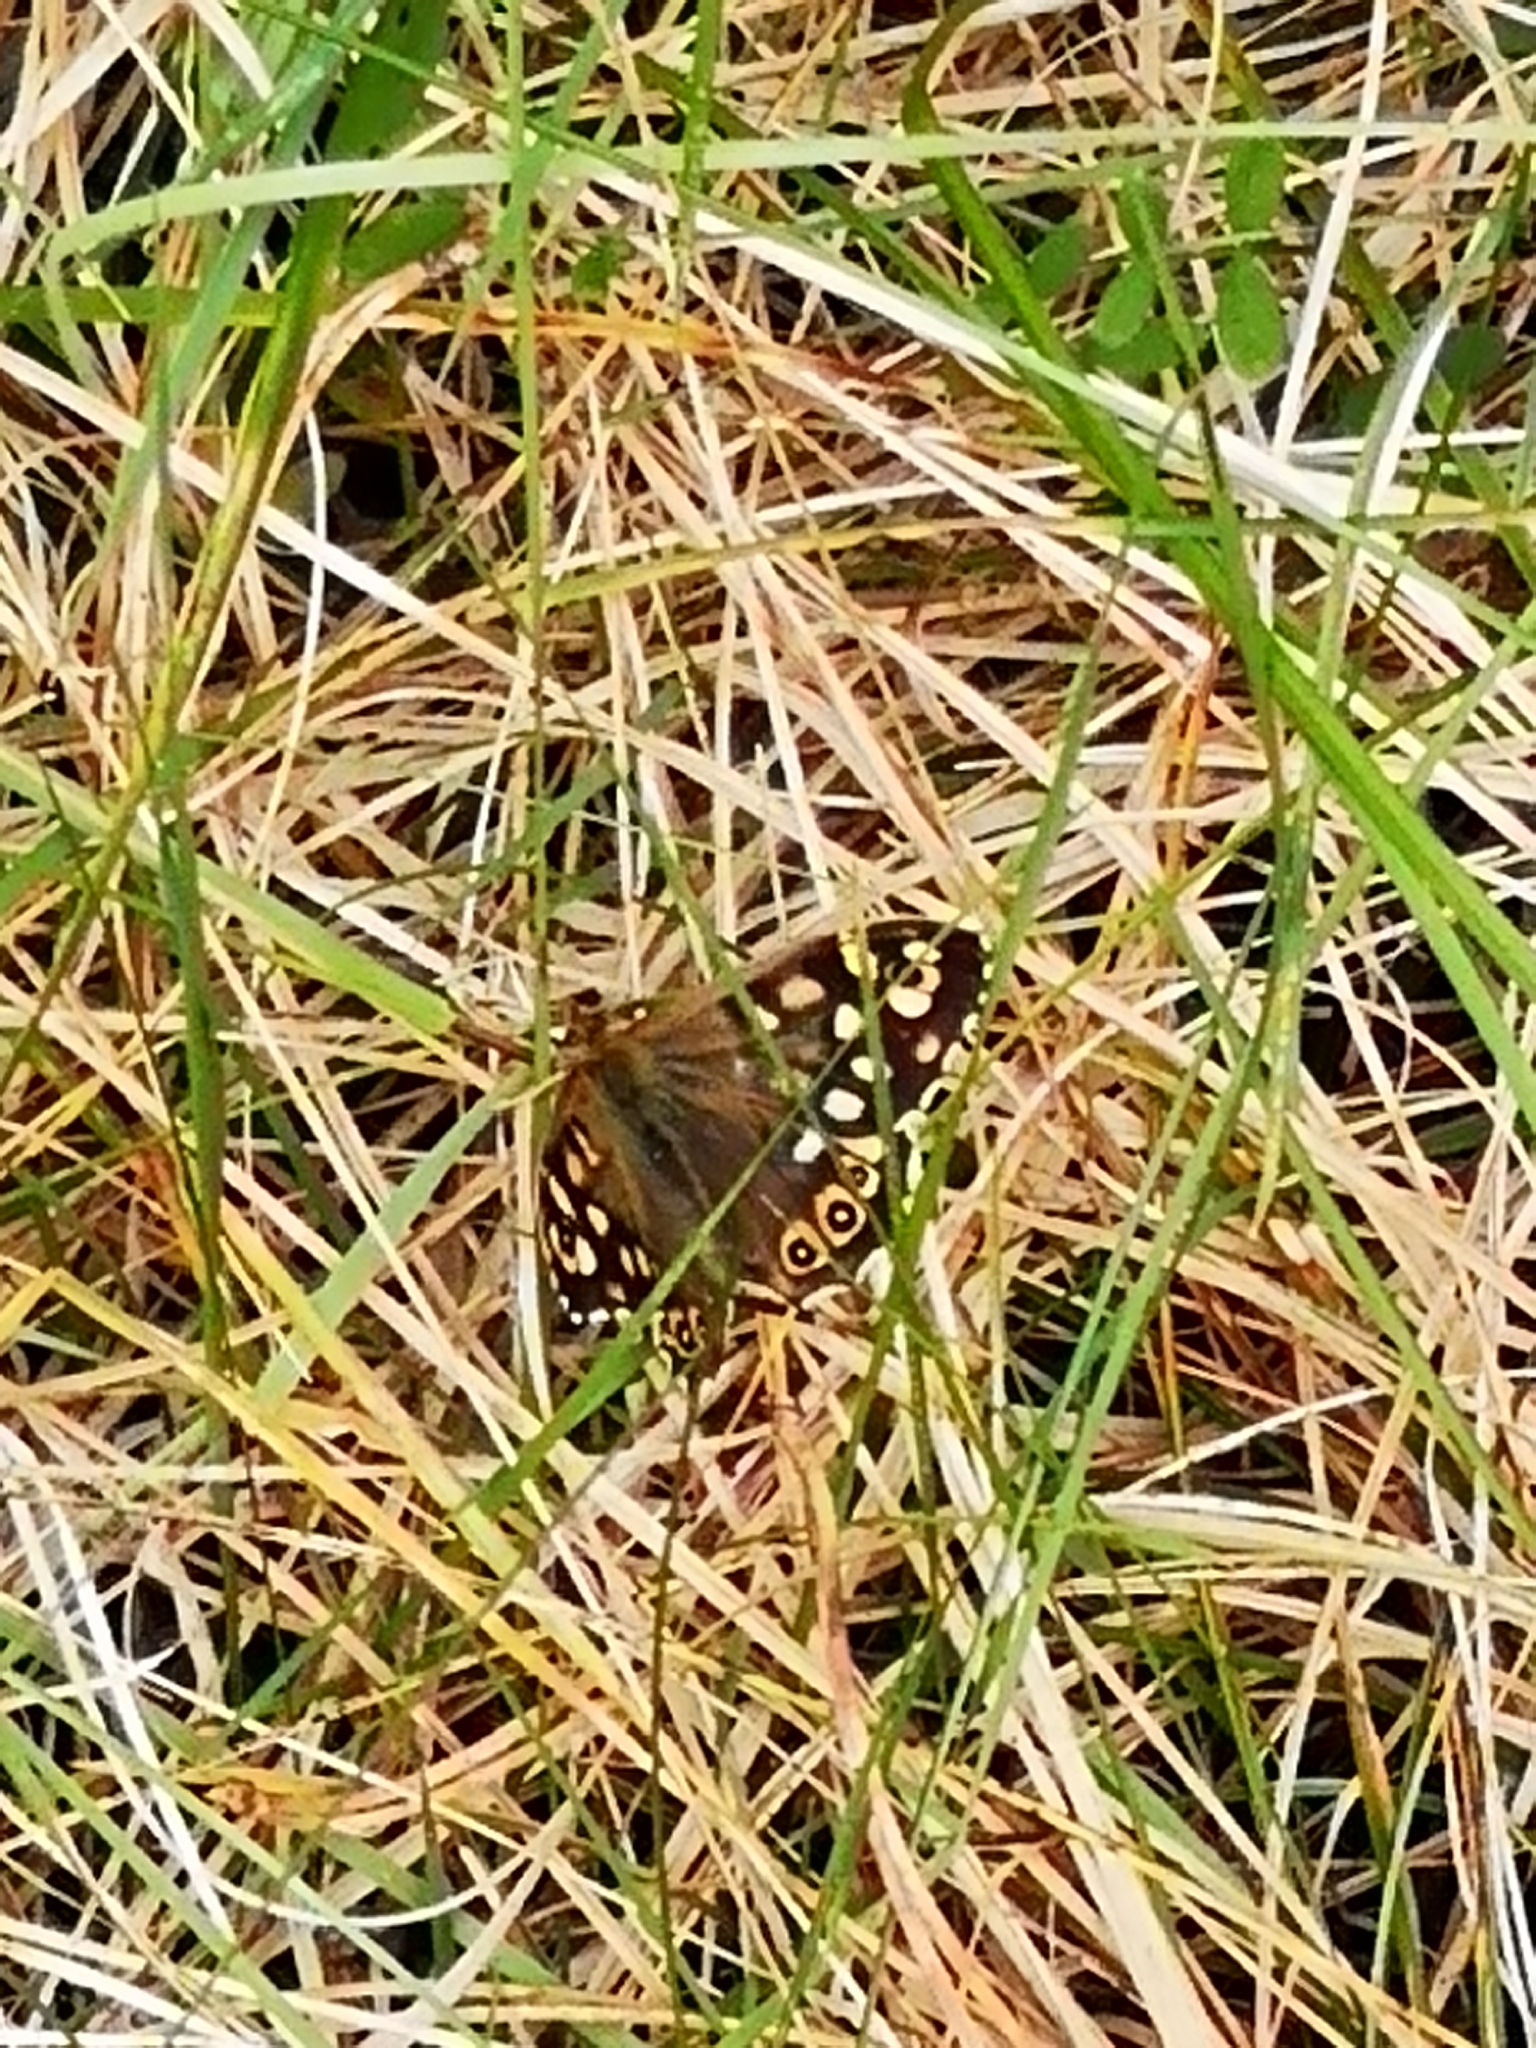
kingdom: Animalia
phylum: Arthropoda
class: Insecta
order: Lepidoptera
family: Nymphalidae
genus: Pararge
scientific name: Pararge aegeria
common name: Speckled wood
